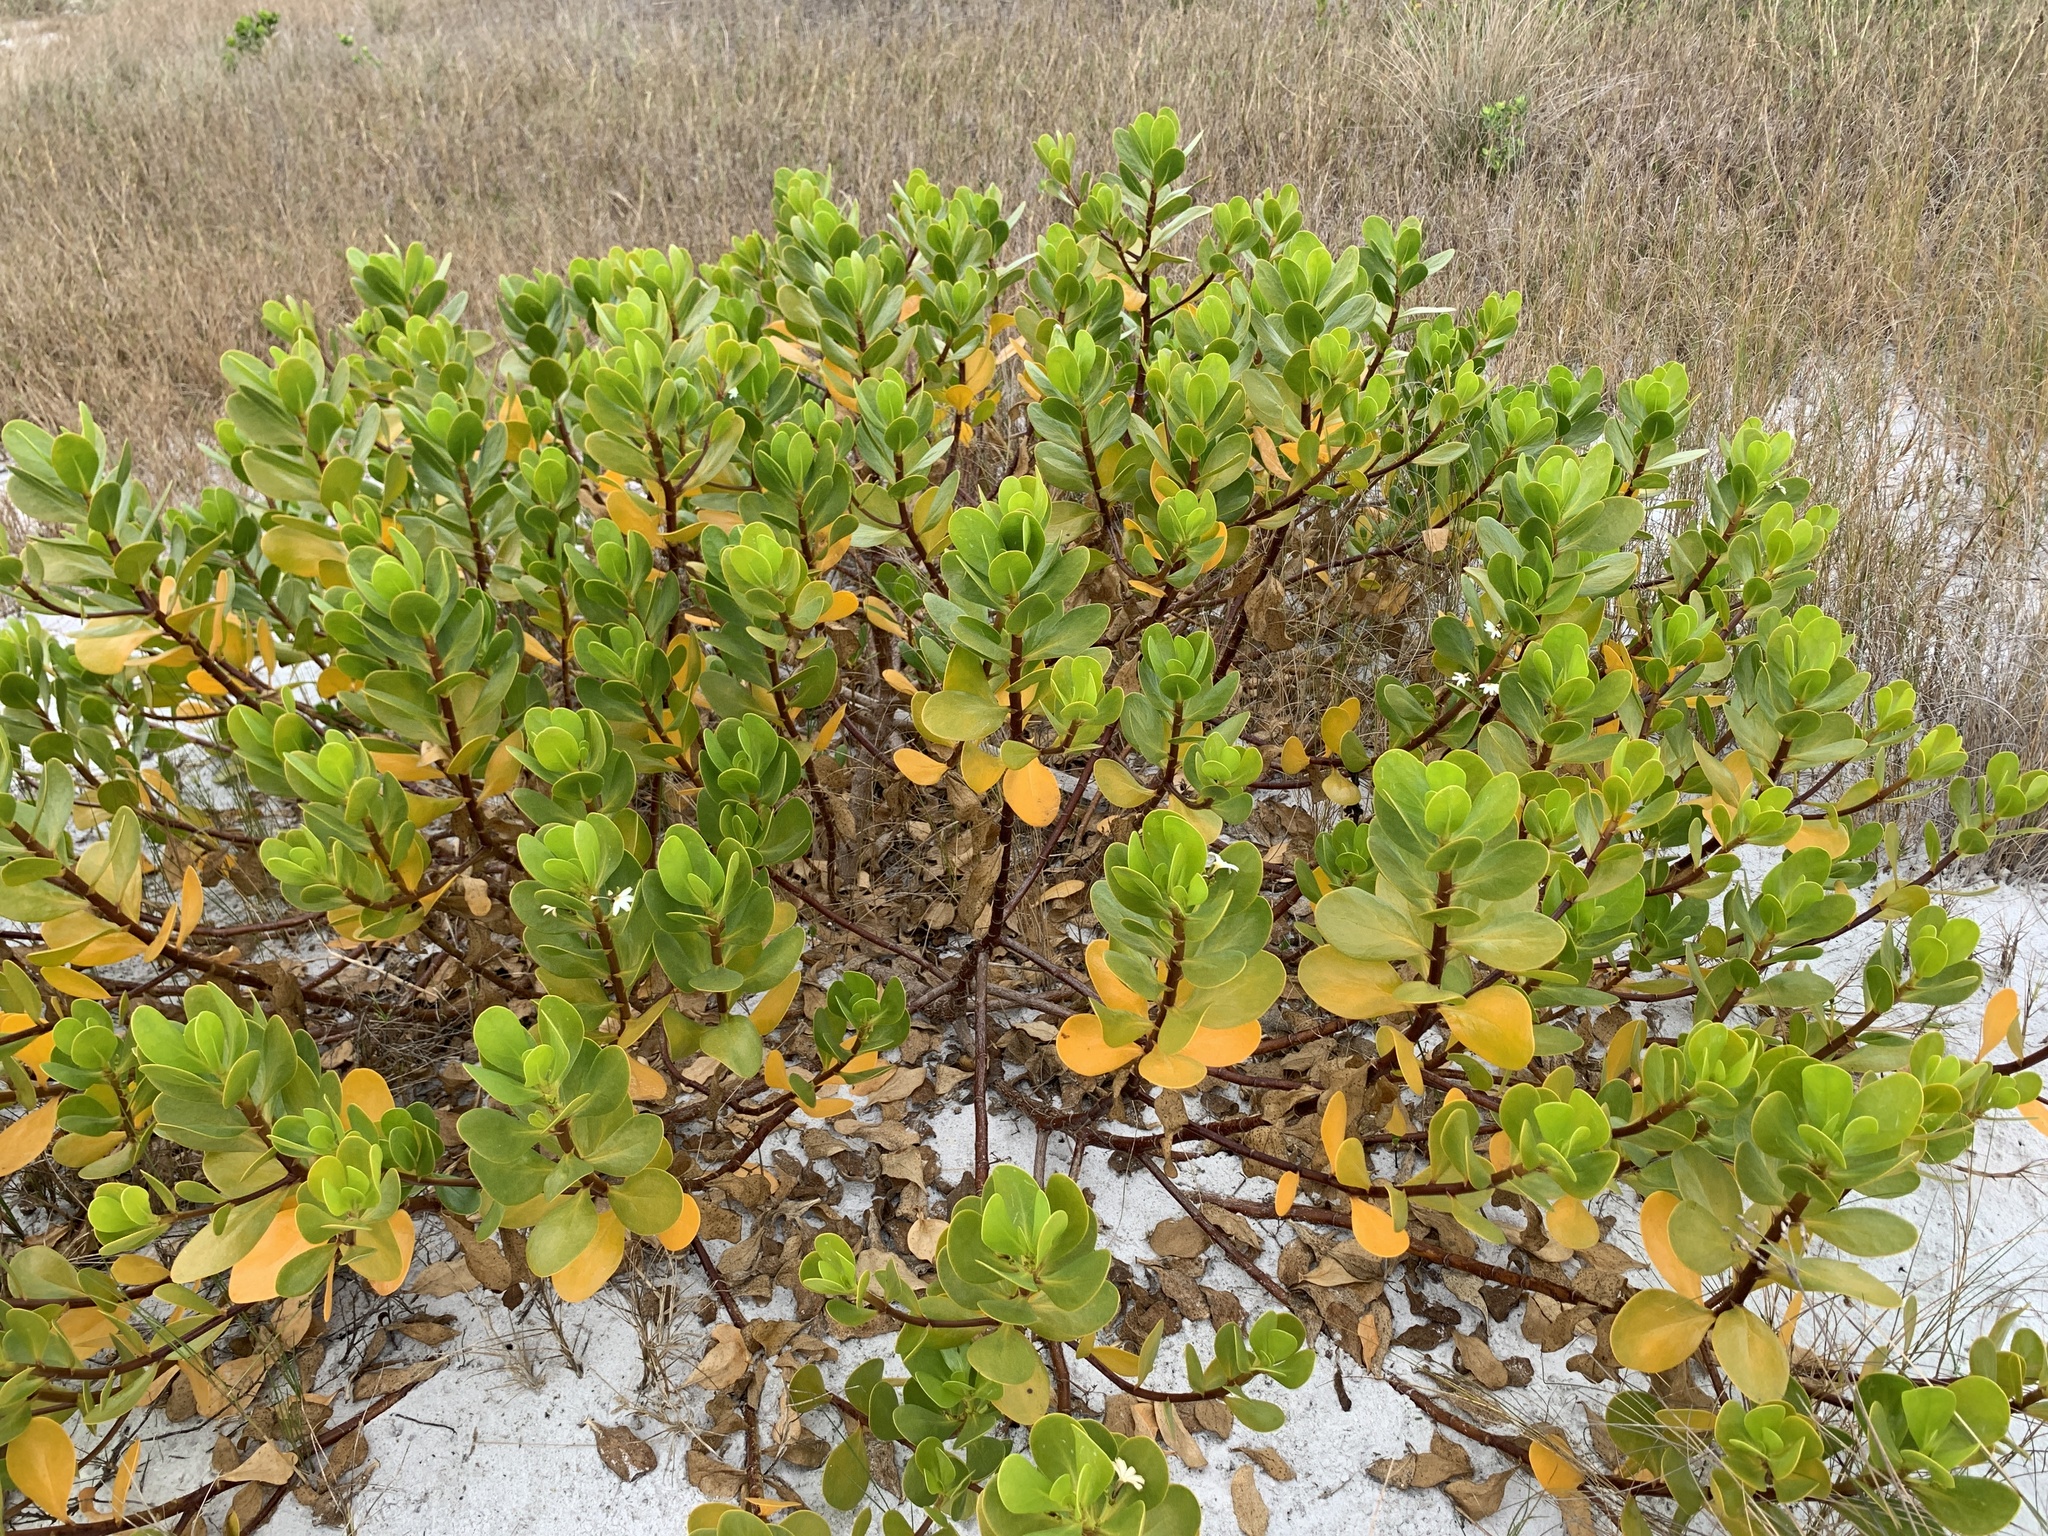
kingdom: Plantae
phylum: Tracheophyta
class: Magnoliopsida
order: Asterales
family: Goodeniaceae
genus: Scaevola
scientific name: Scaevola plumieri
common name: Gull feed
